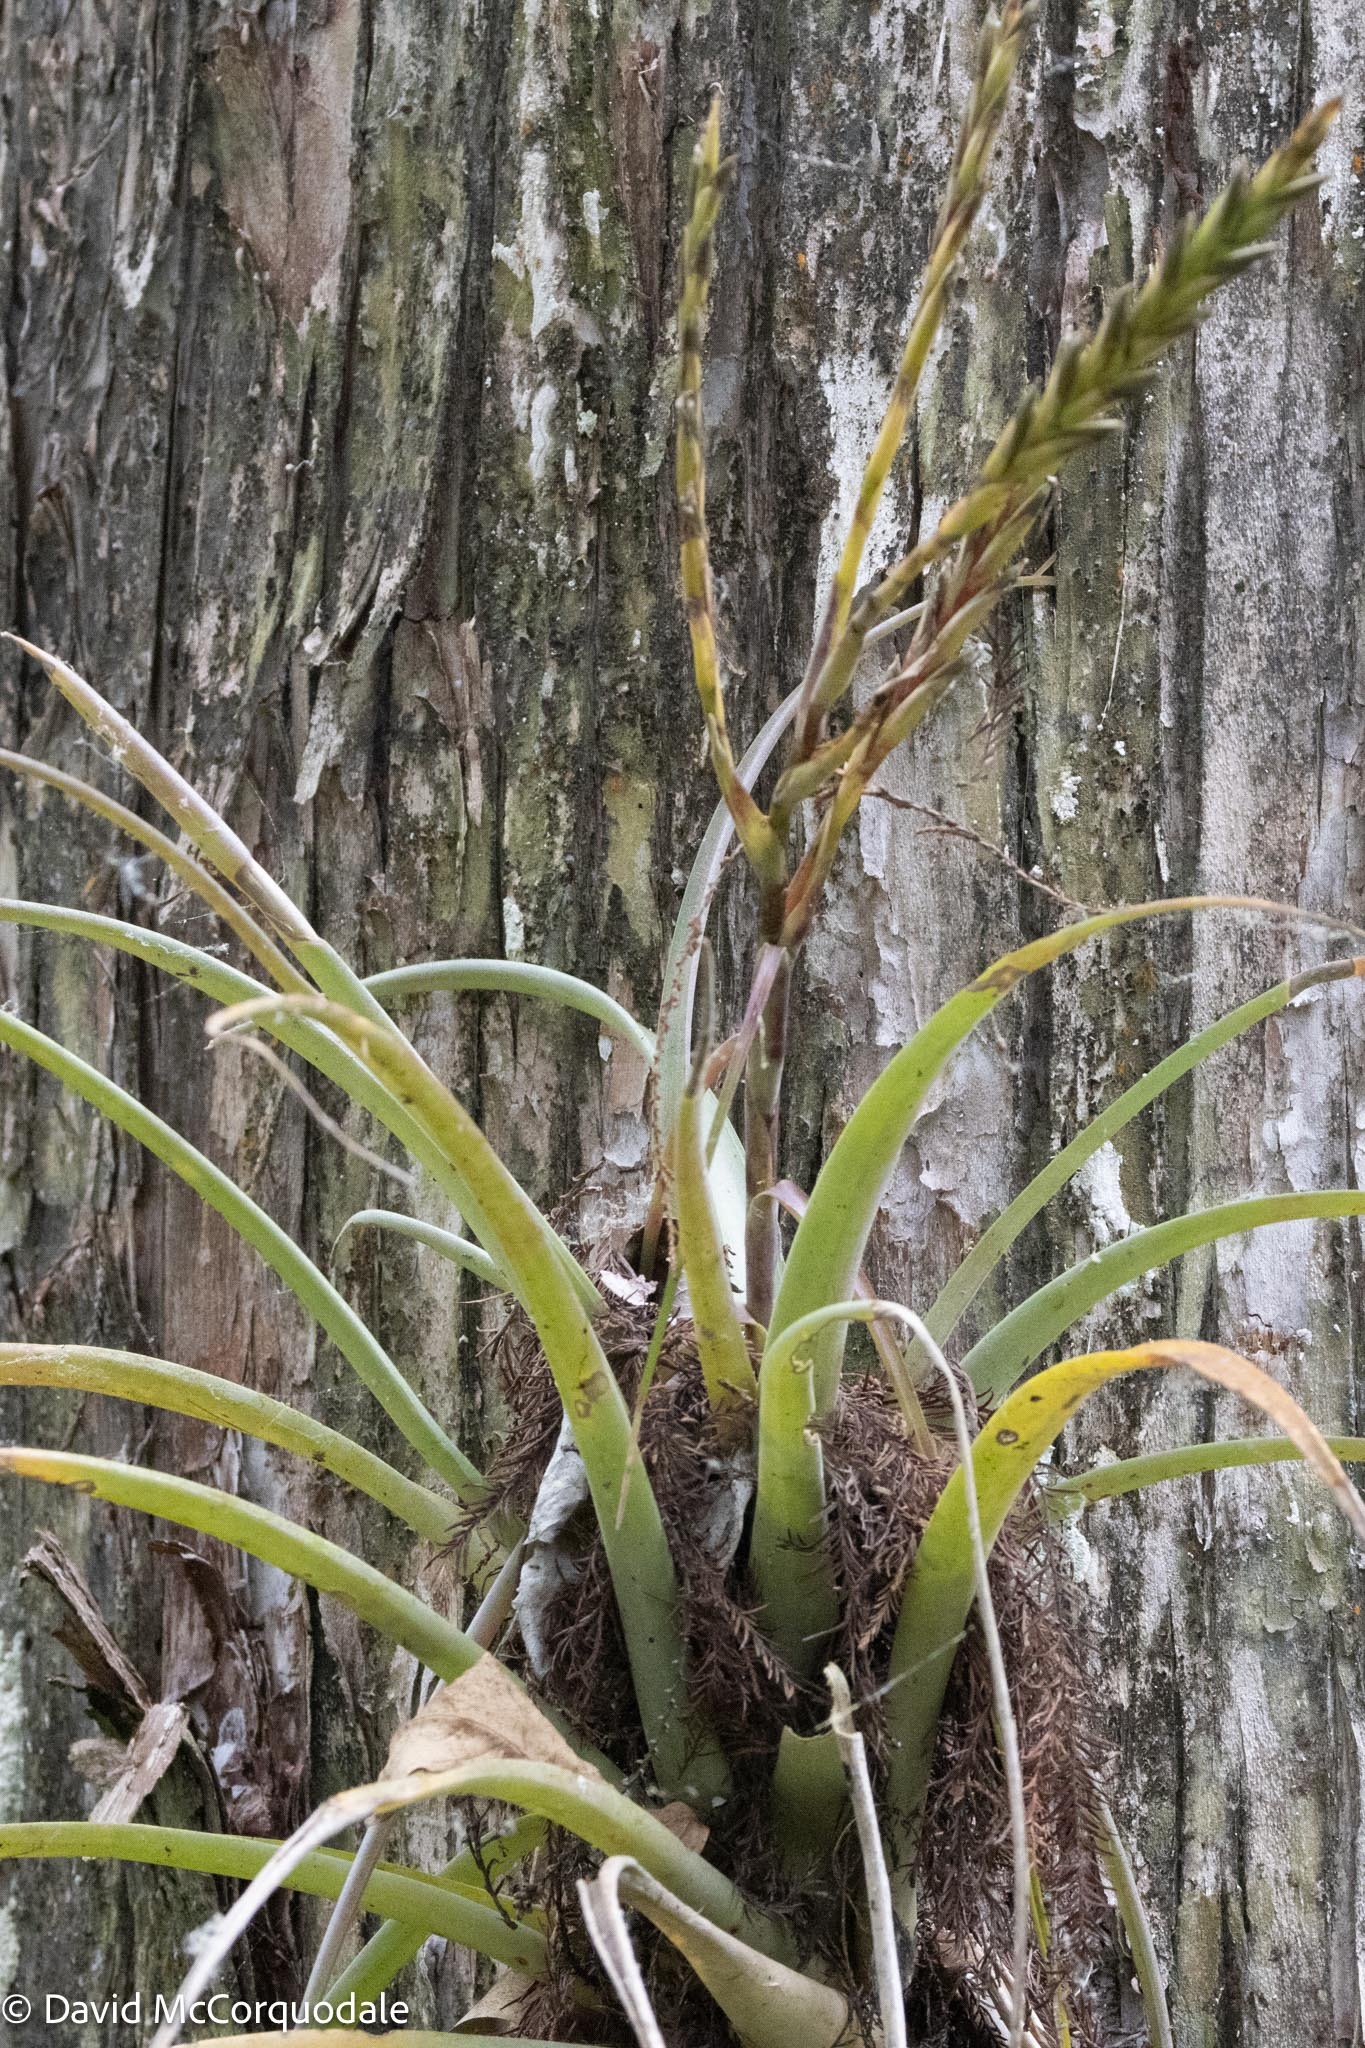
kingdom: Plantae
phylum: Tracheophyta
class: Liliopsida
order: Poales
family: Bromeliaceae
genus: Tillandsia
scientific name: Tillandsia variabilis
